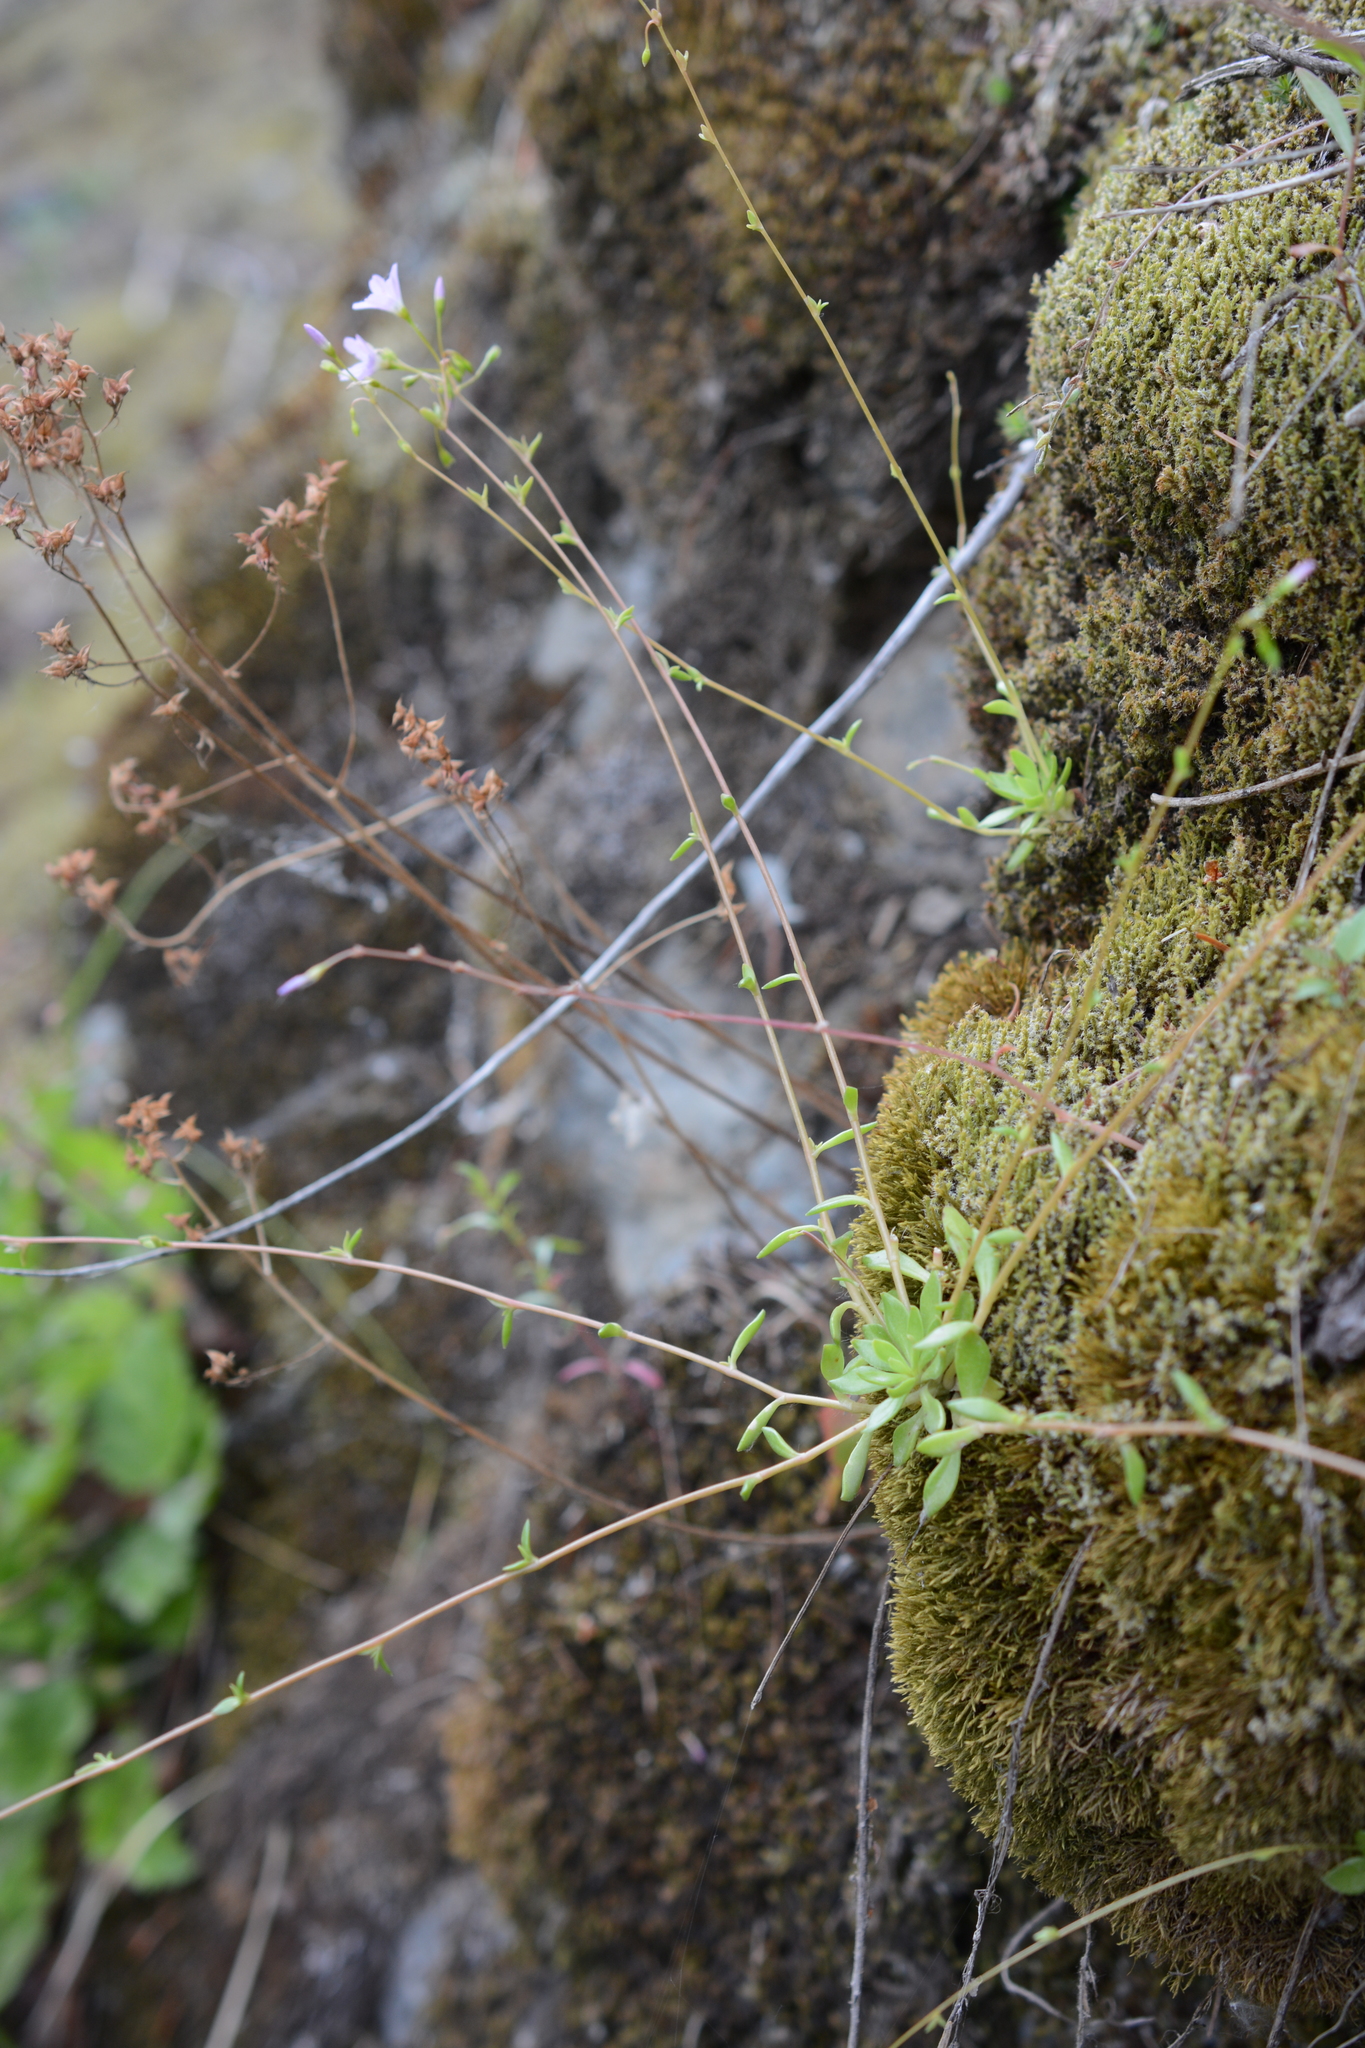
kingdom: Plantae
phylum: Tracheophyta
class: Magnoliopsida
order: Caryophyllales
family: Montiaceae
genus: Montia
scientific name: Montia parvifolia
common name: Small-leaved blinks
